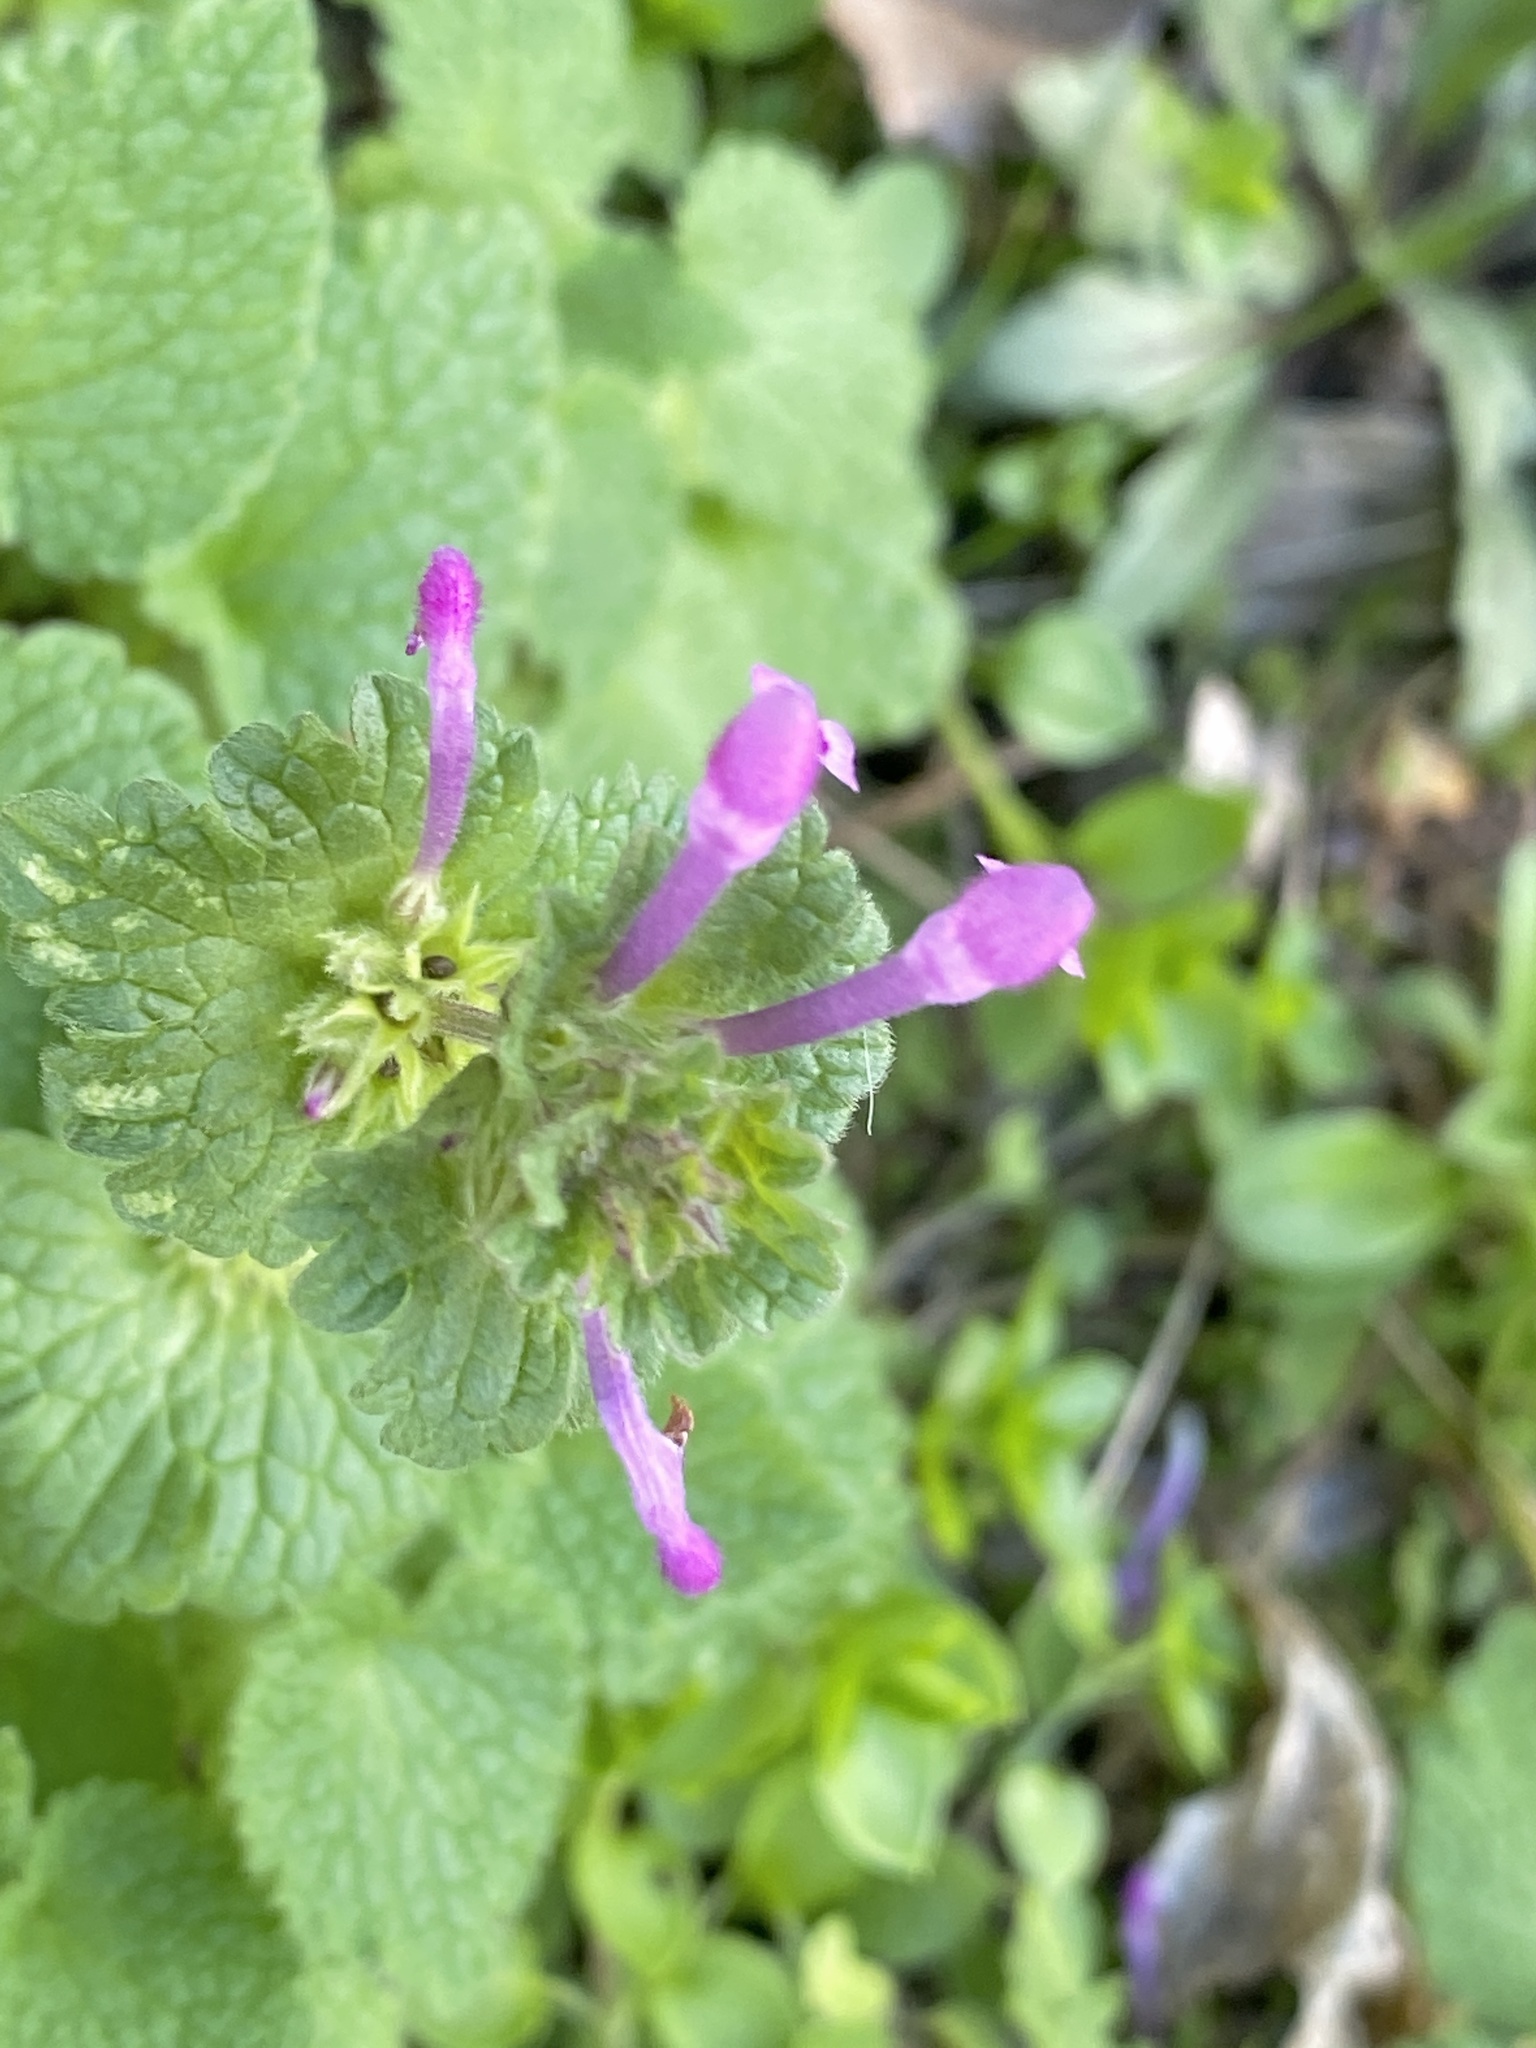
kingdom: Plantae
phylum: Tracheophyta
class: Magnoliopsida
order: Lamiales
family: Lamiaceae
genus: Lamium
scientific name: Lamium amplexicaule
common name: Henbit dead-nettle
